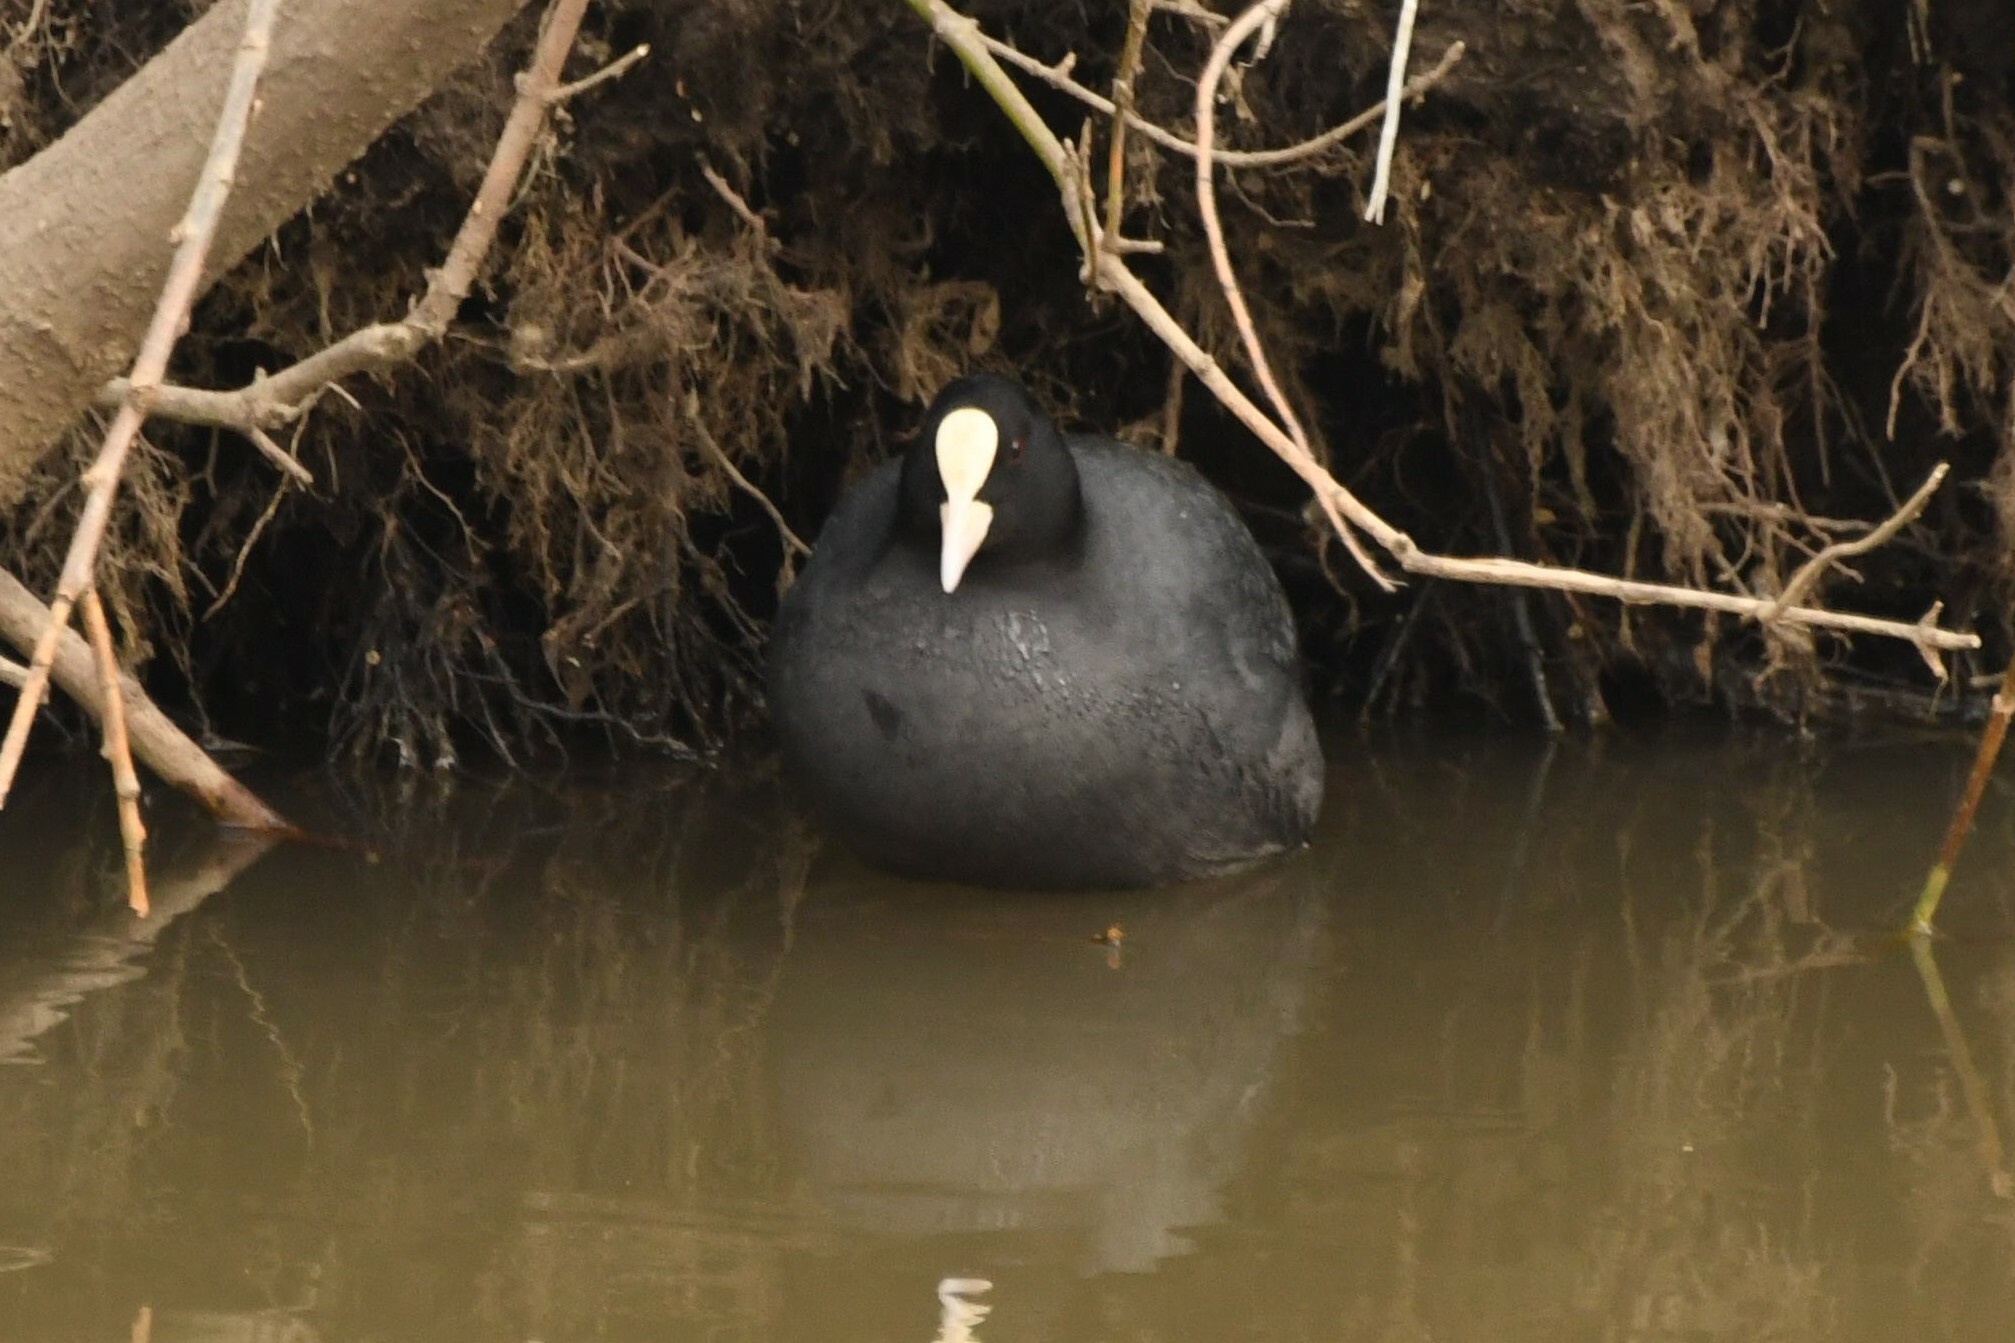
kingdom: Animalia
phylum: Chordata
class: Aves
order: Gruiformes
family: Rallidae
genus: Fulica
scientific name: Fulica atra
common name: Eurasian coot
